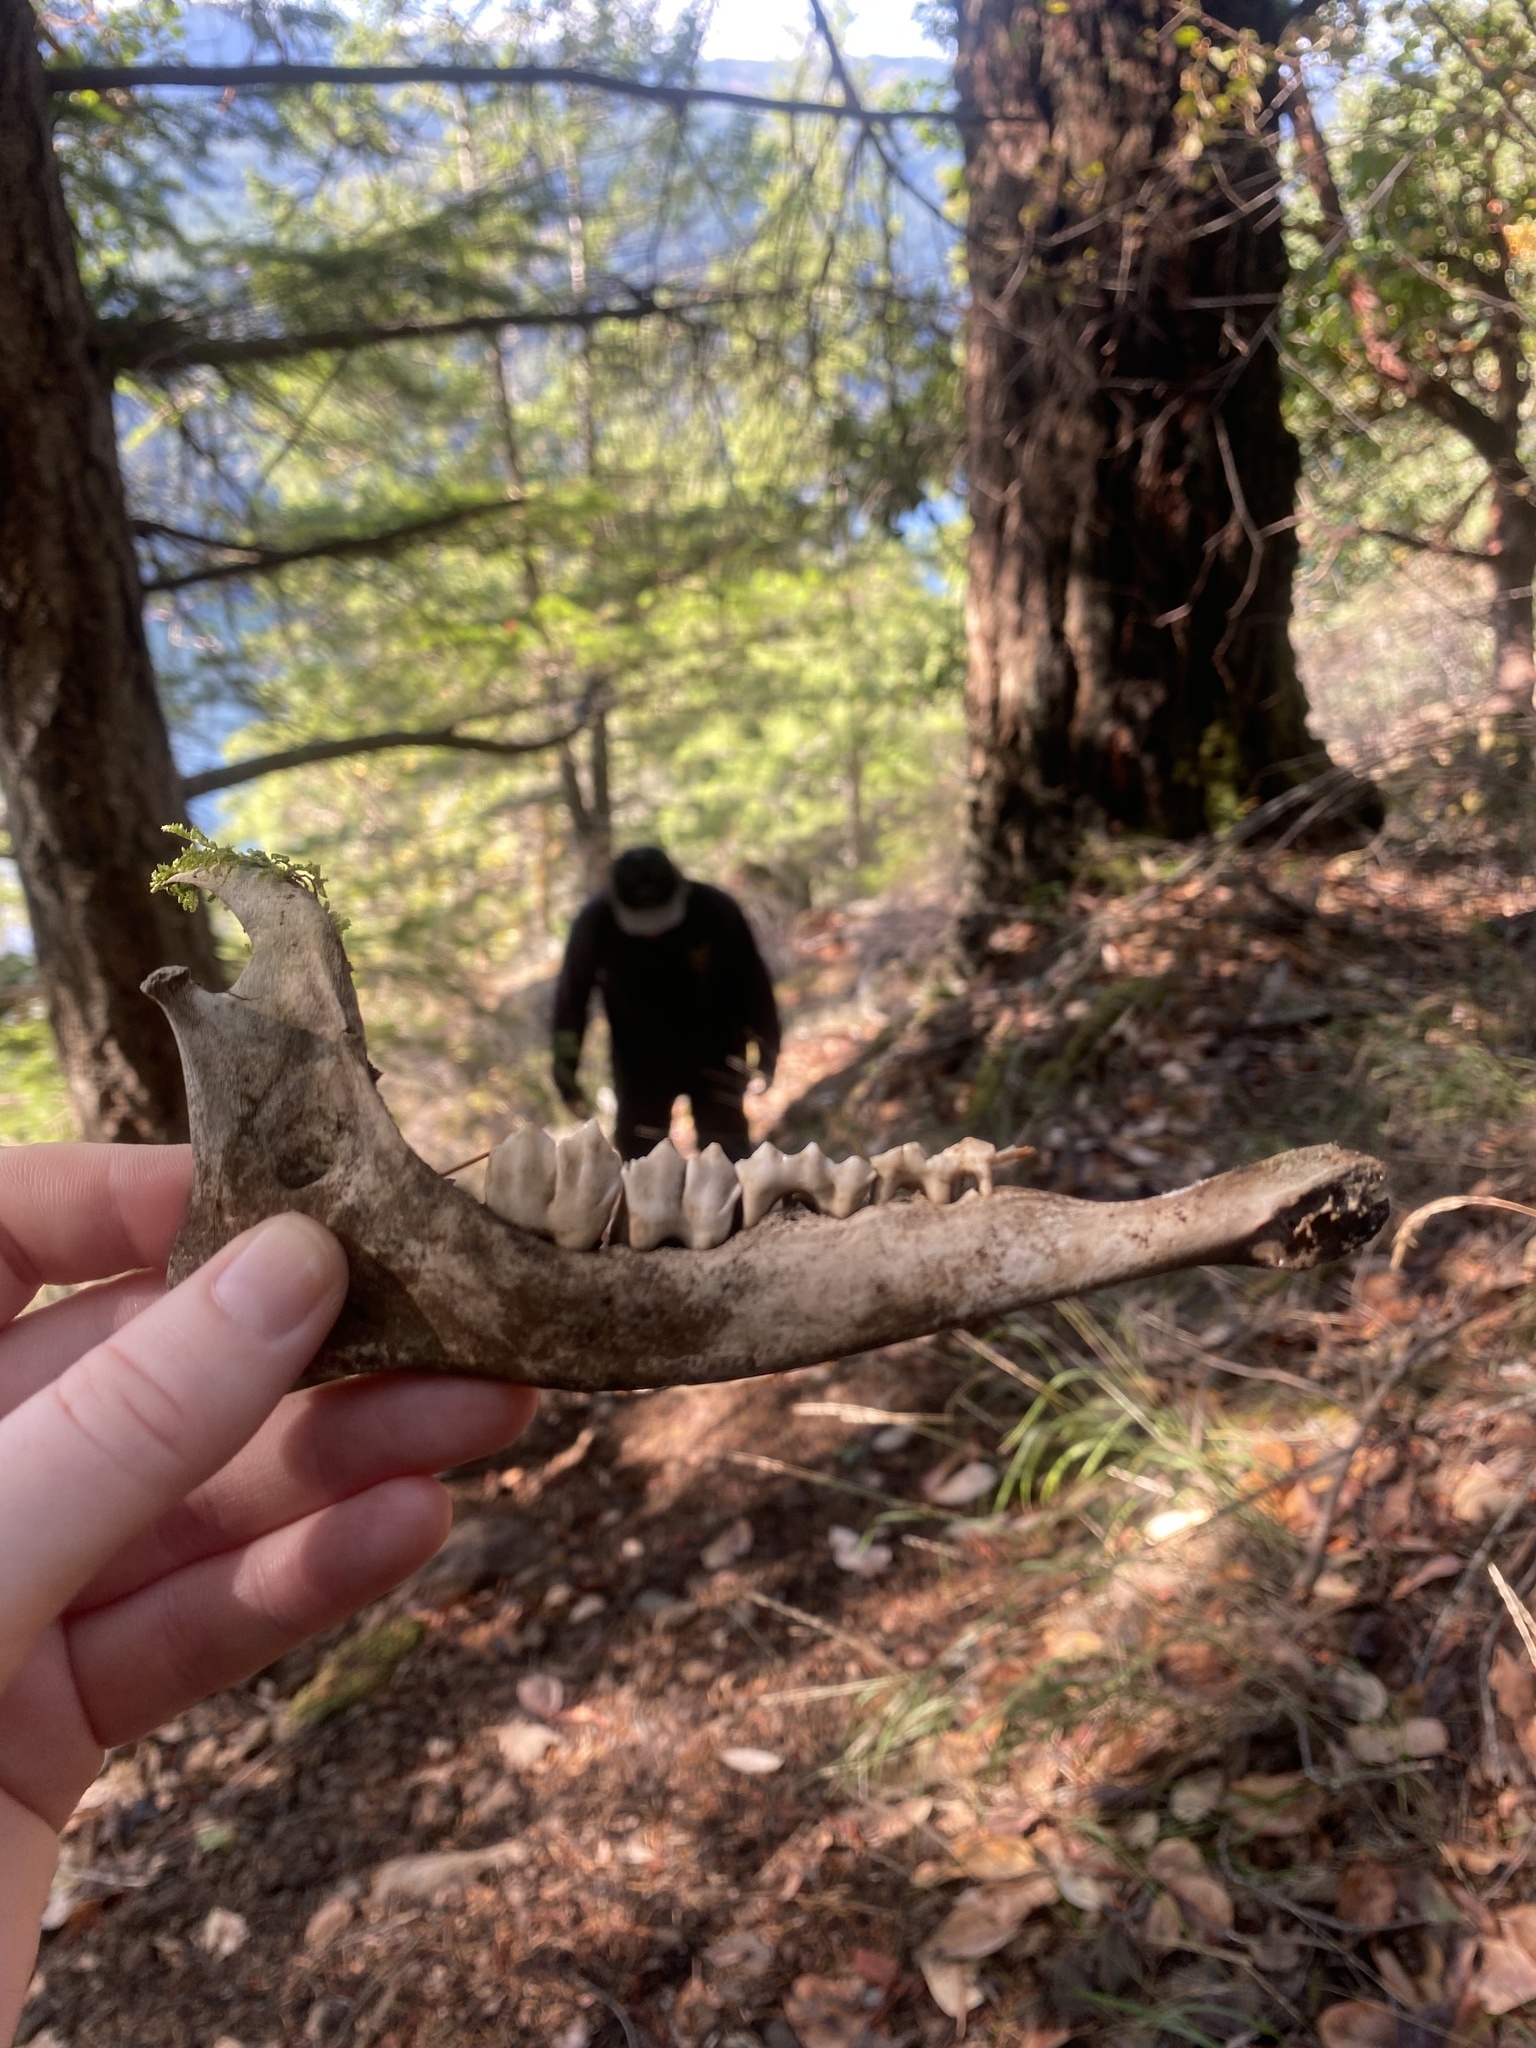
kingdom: Animalia
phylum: Chordata
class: Mammalia
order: Artiodactyla
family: Cervidae
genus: Odocoileus
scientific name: Odocoileus hemionus
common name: Mule deer
